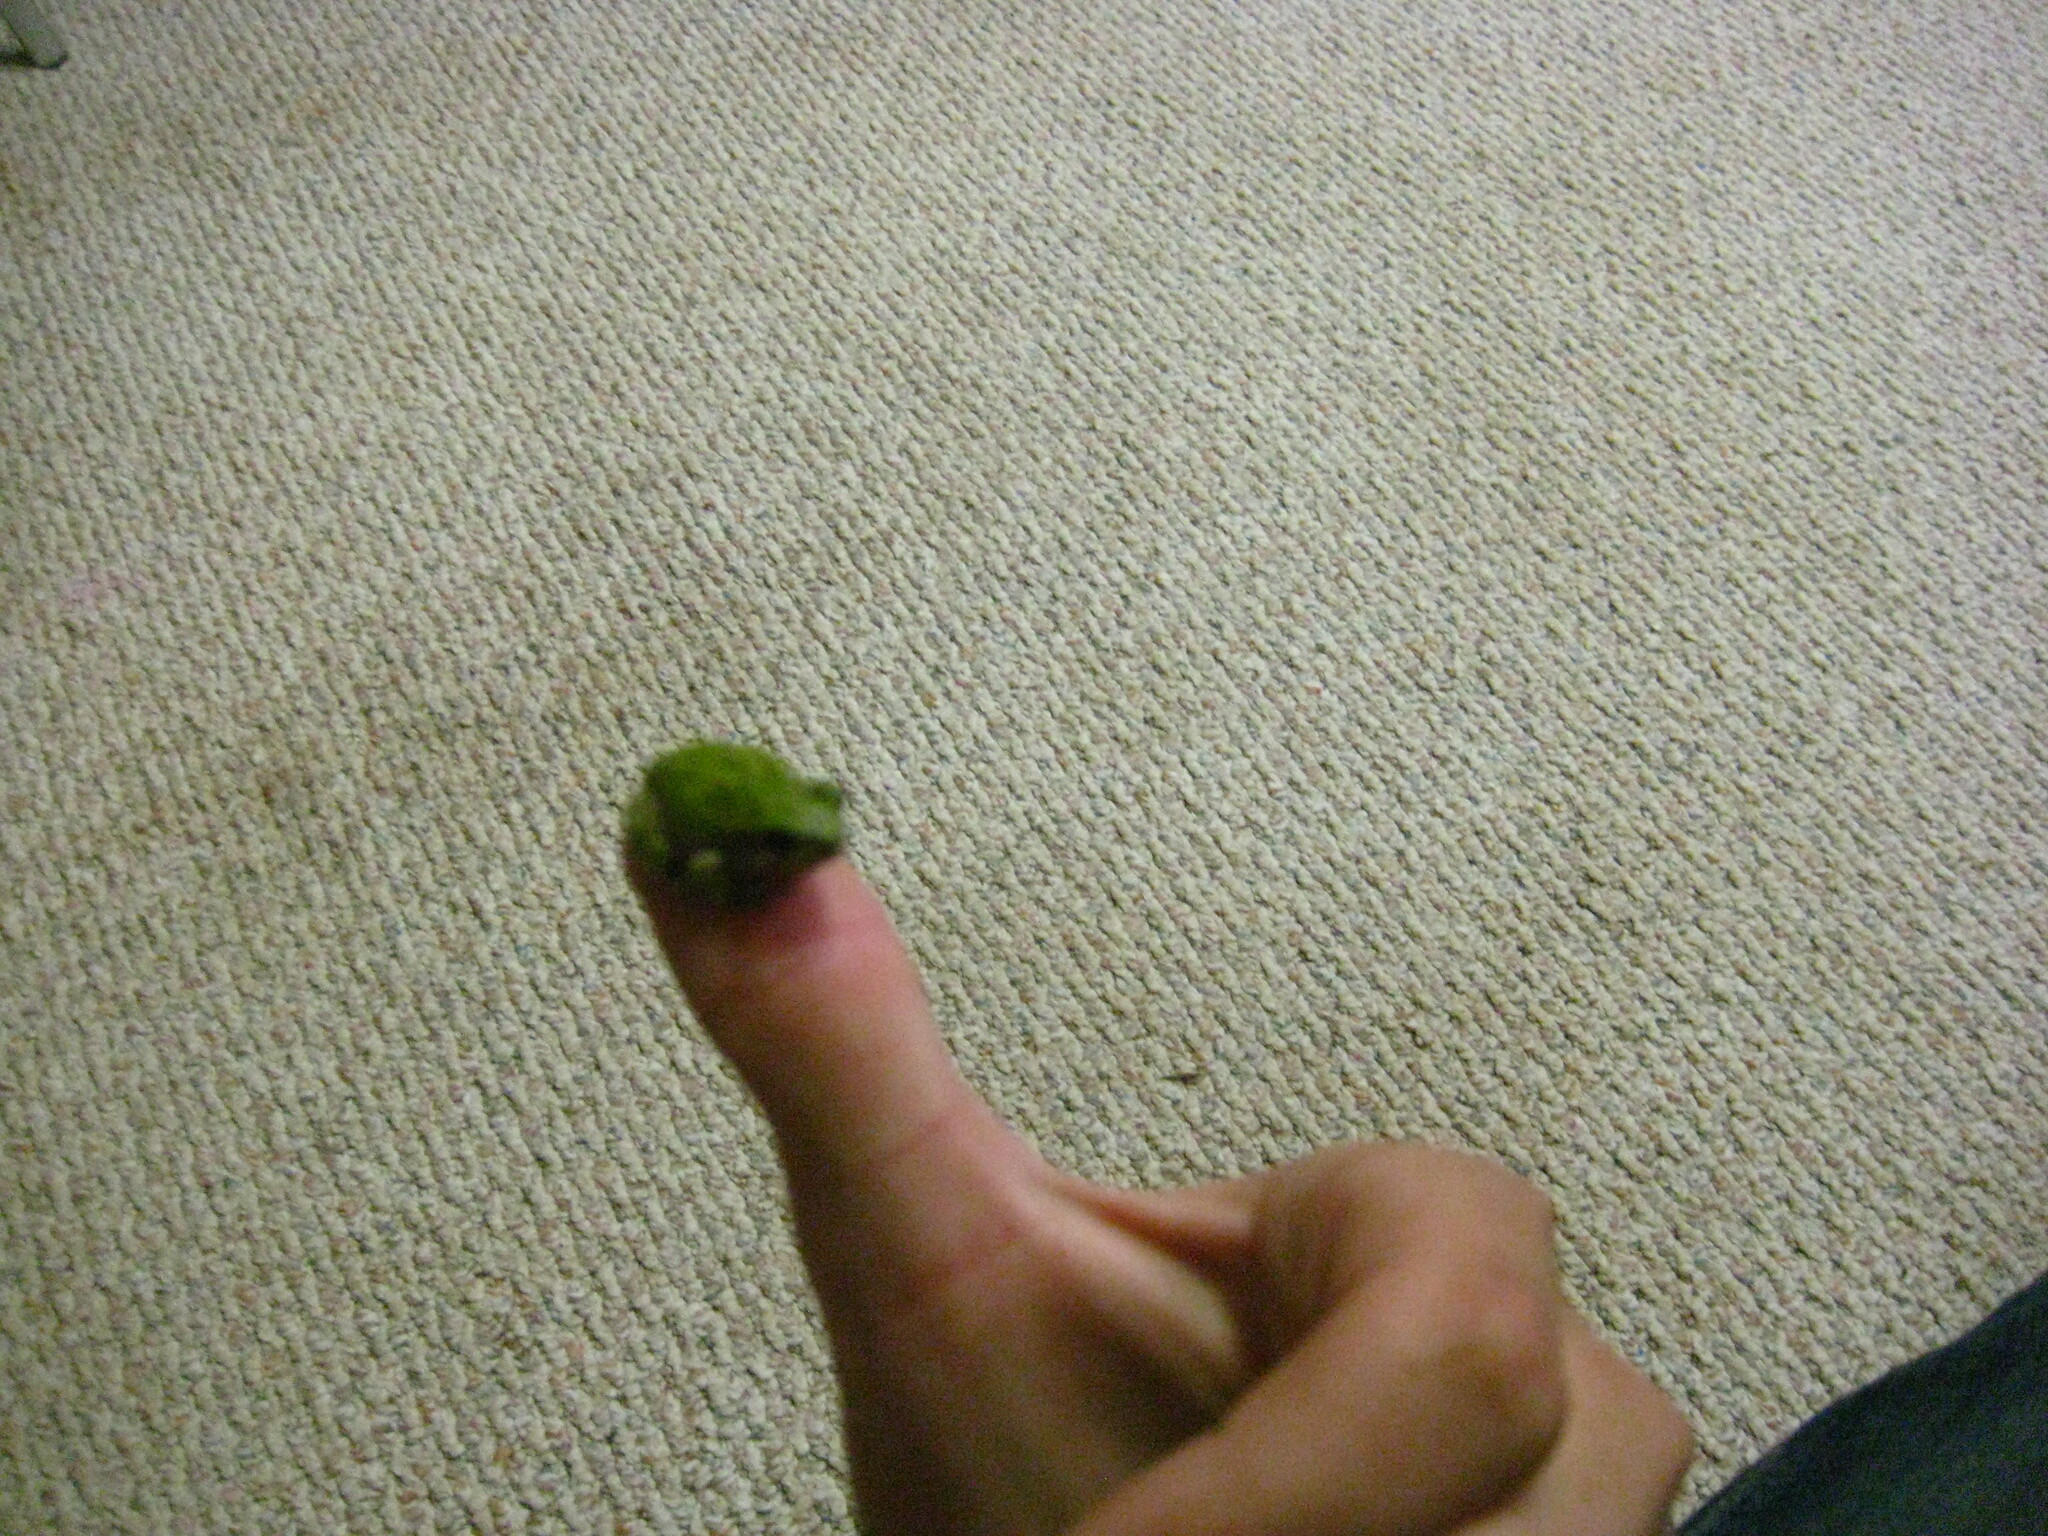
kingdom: Animalia
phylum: Chordata
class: Amphibia
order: Anura
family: Hylidae
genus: Dryophytes
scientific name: Dryophytes versicolor
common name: Gray treefrog
